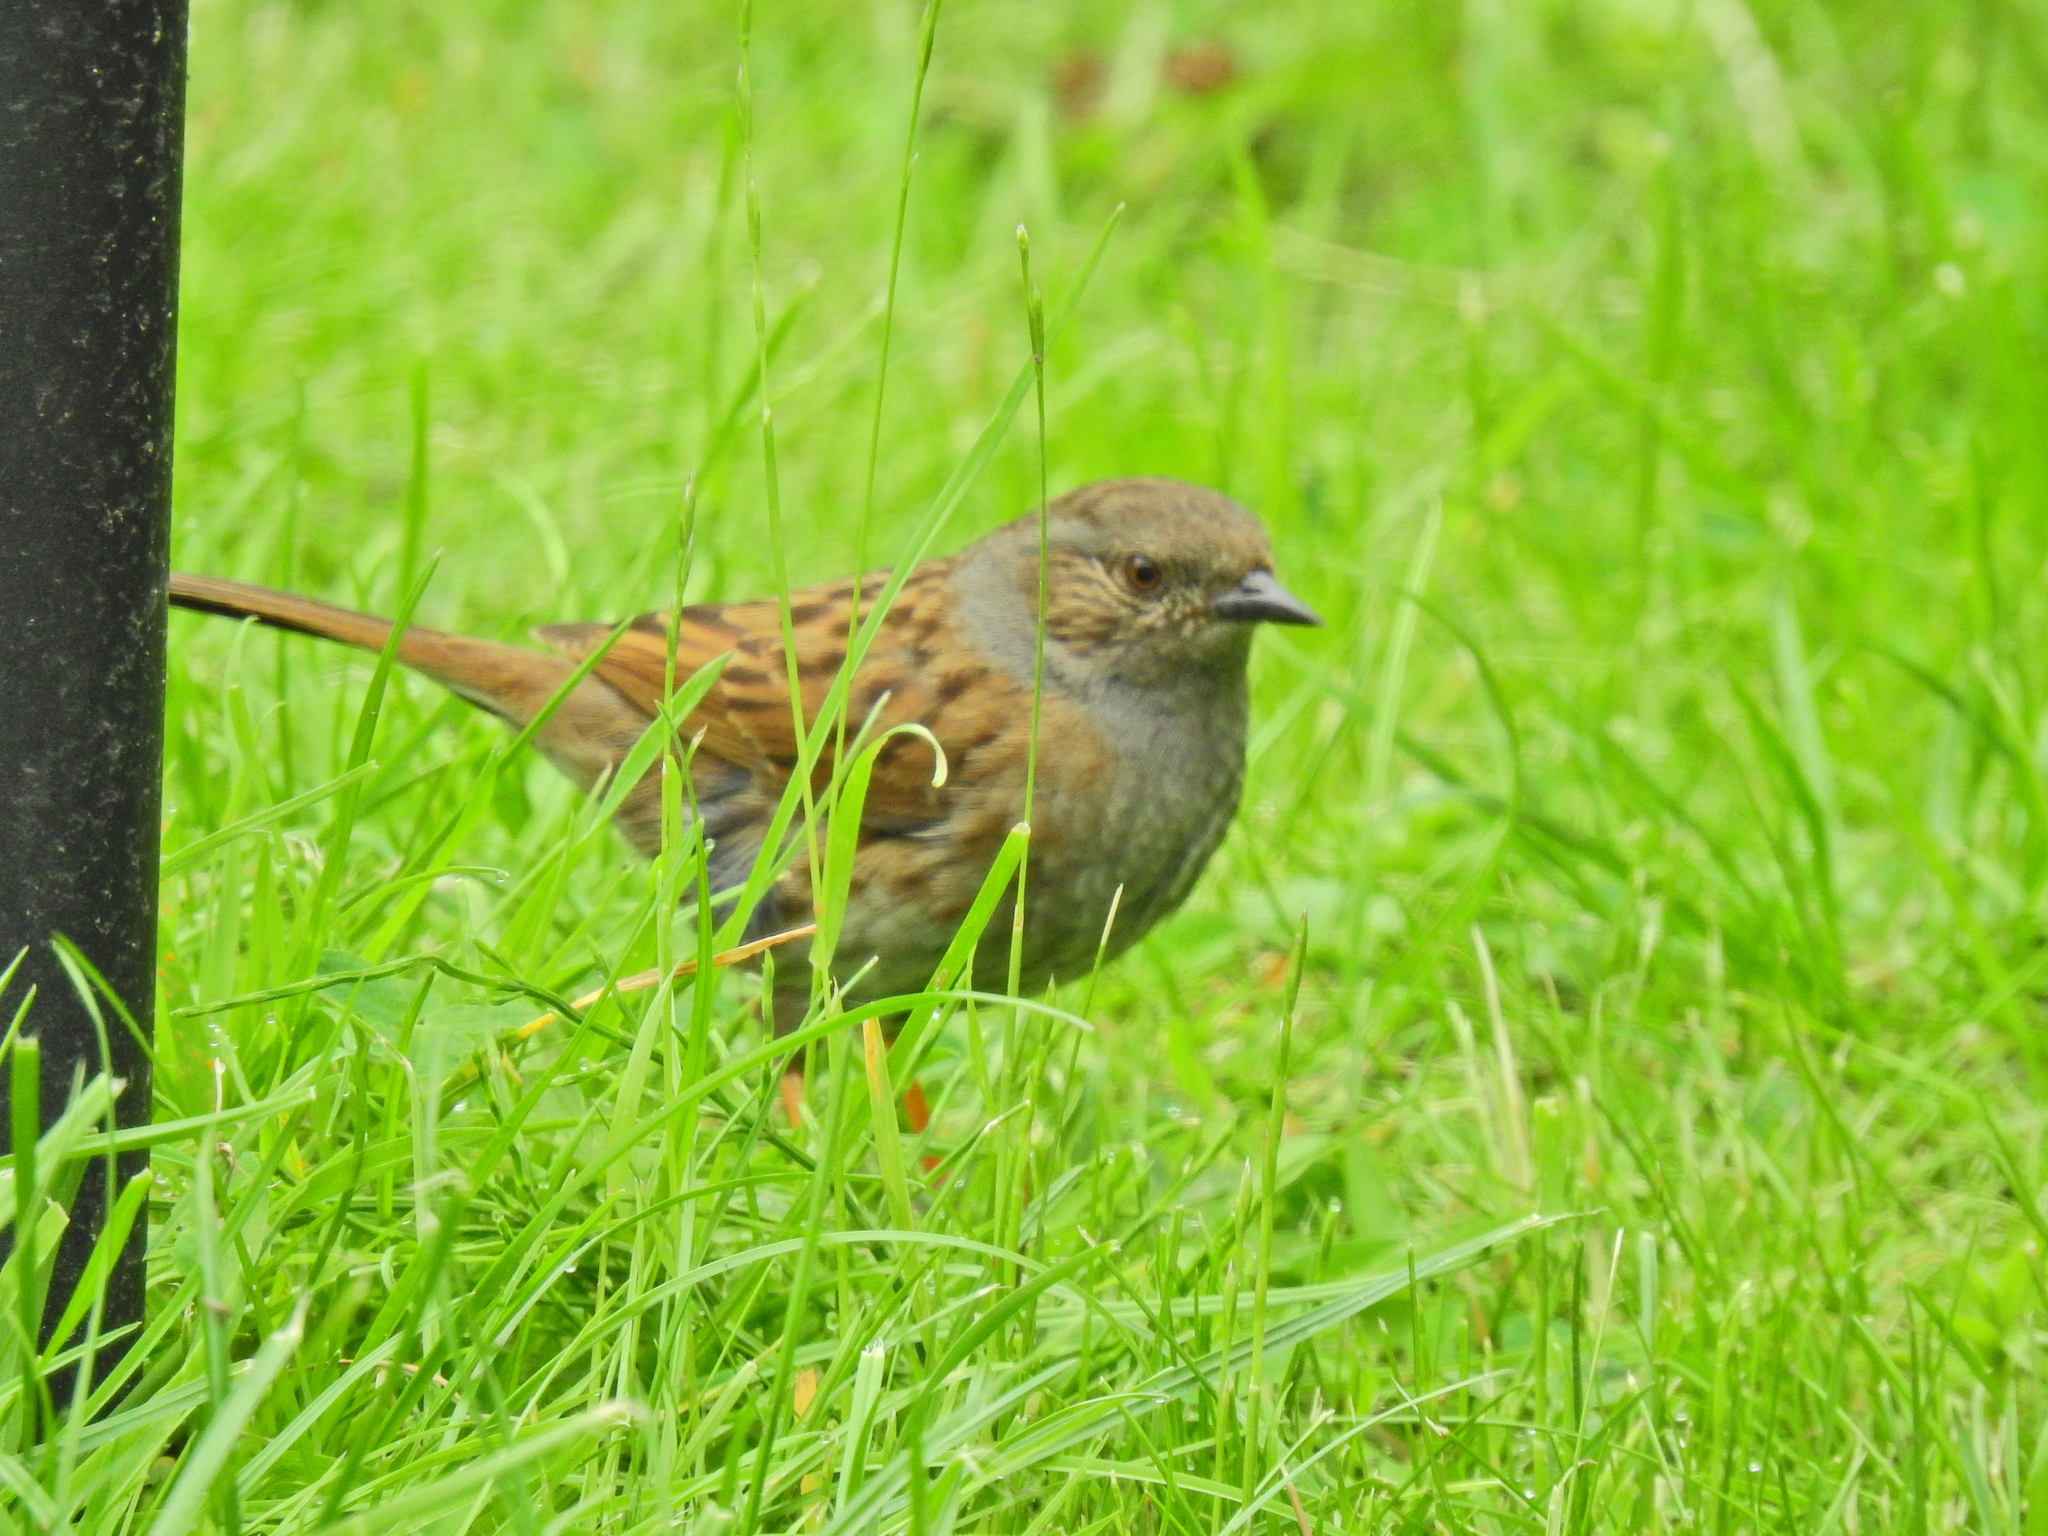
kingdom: Animalia
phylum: Chordata
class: Aves
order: Passeriformes
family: Prunellidae
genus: Prunella
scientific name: Prunella modularis
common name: Dunnock
